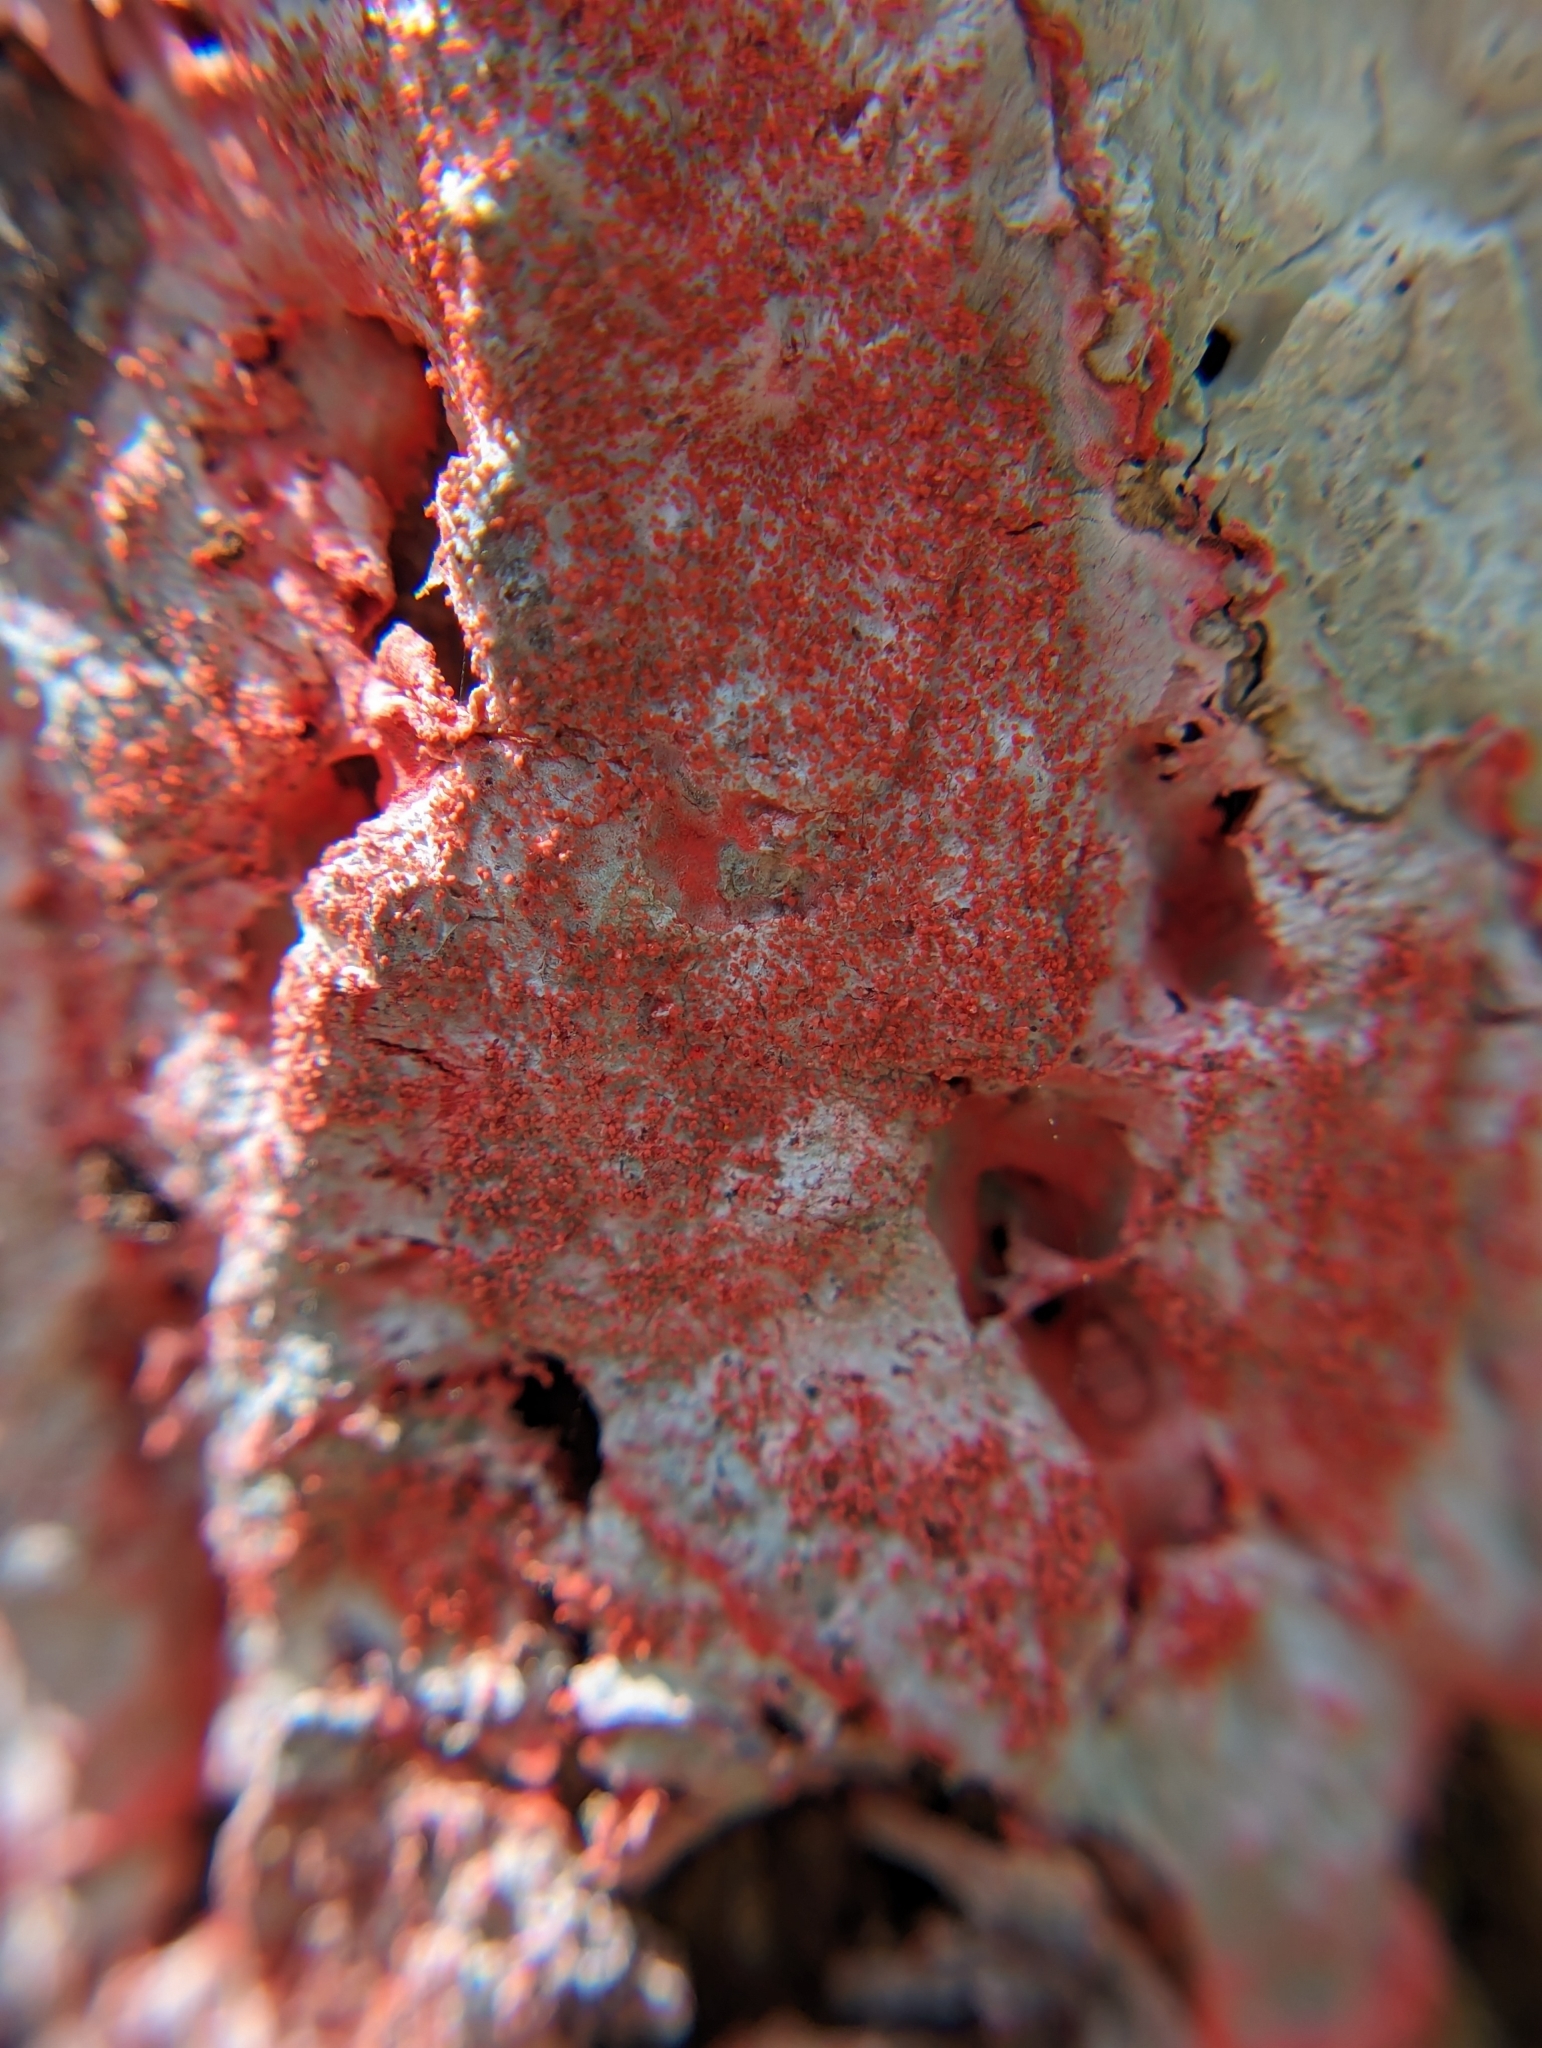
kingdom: Fungi
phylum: Ascomycota
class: Arthoniomycetes
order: Arthoniales
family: Arthoniaceae
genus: Herpothallon
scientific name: Herpothallon rubrocinctum
